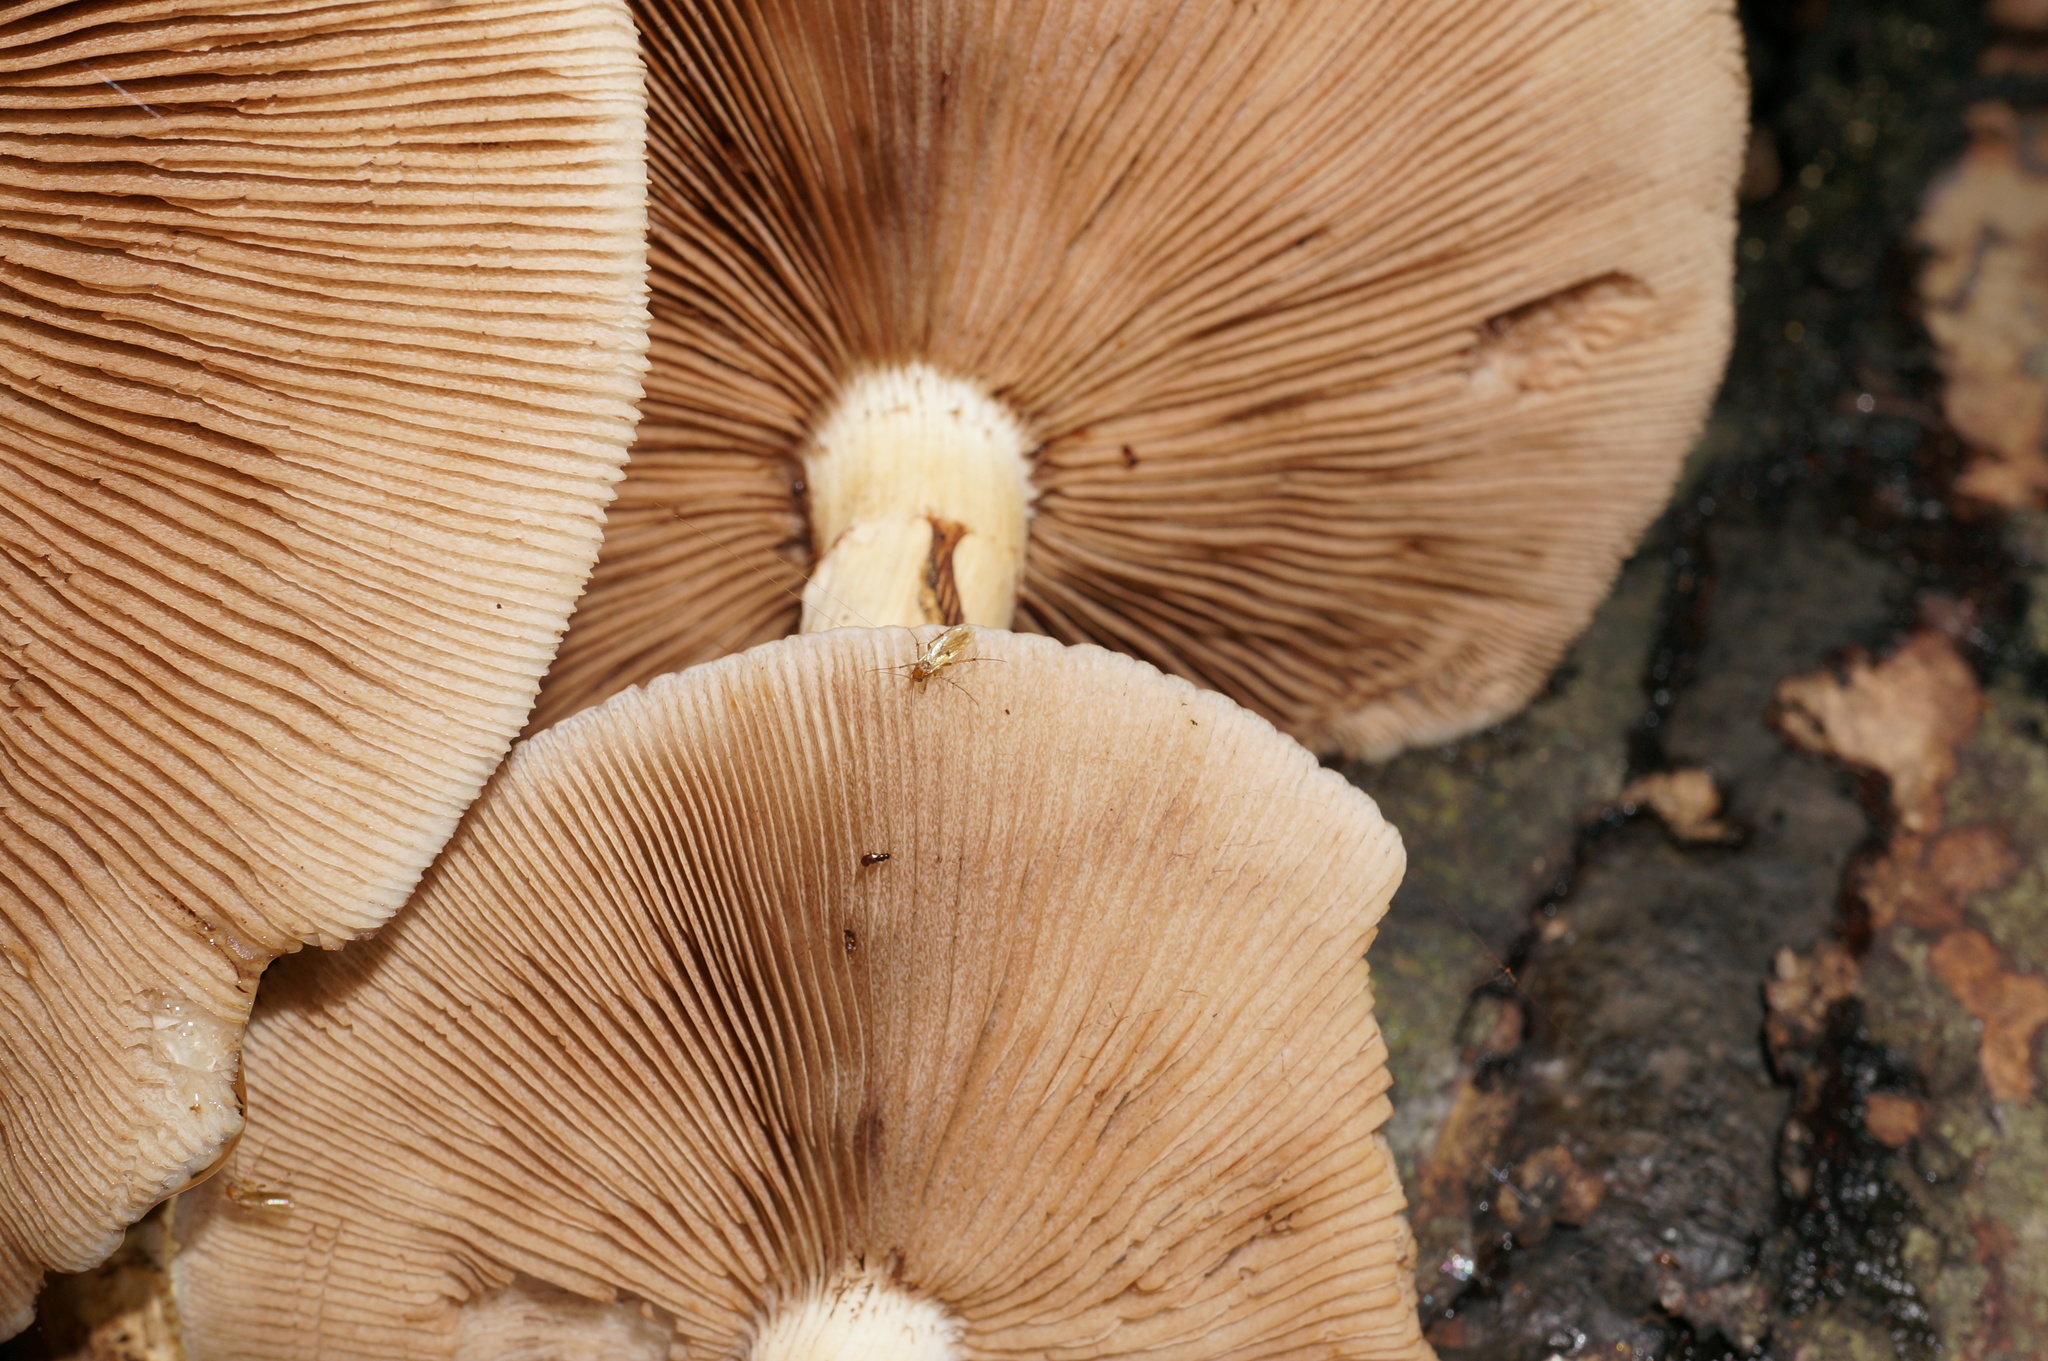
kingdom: Fungi
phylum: Basidiomycota
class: Agaricomycetes
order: Agaricales
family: Tubariaceae
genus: Cyclocybe
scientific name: Cyclocybe parasitica
